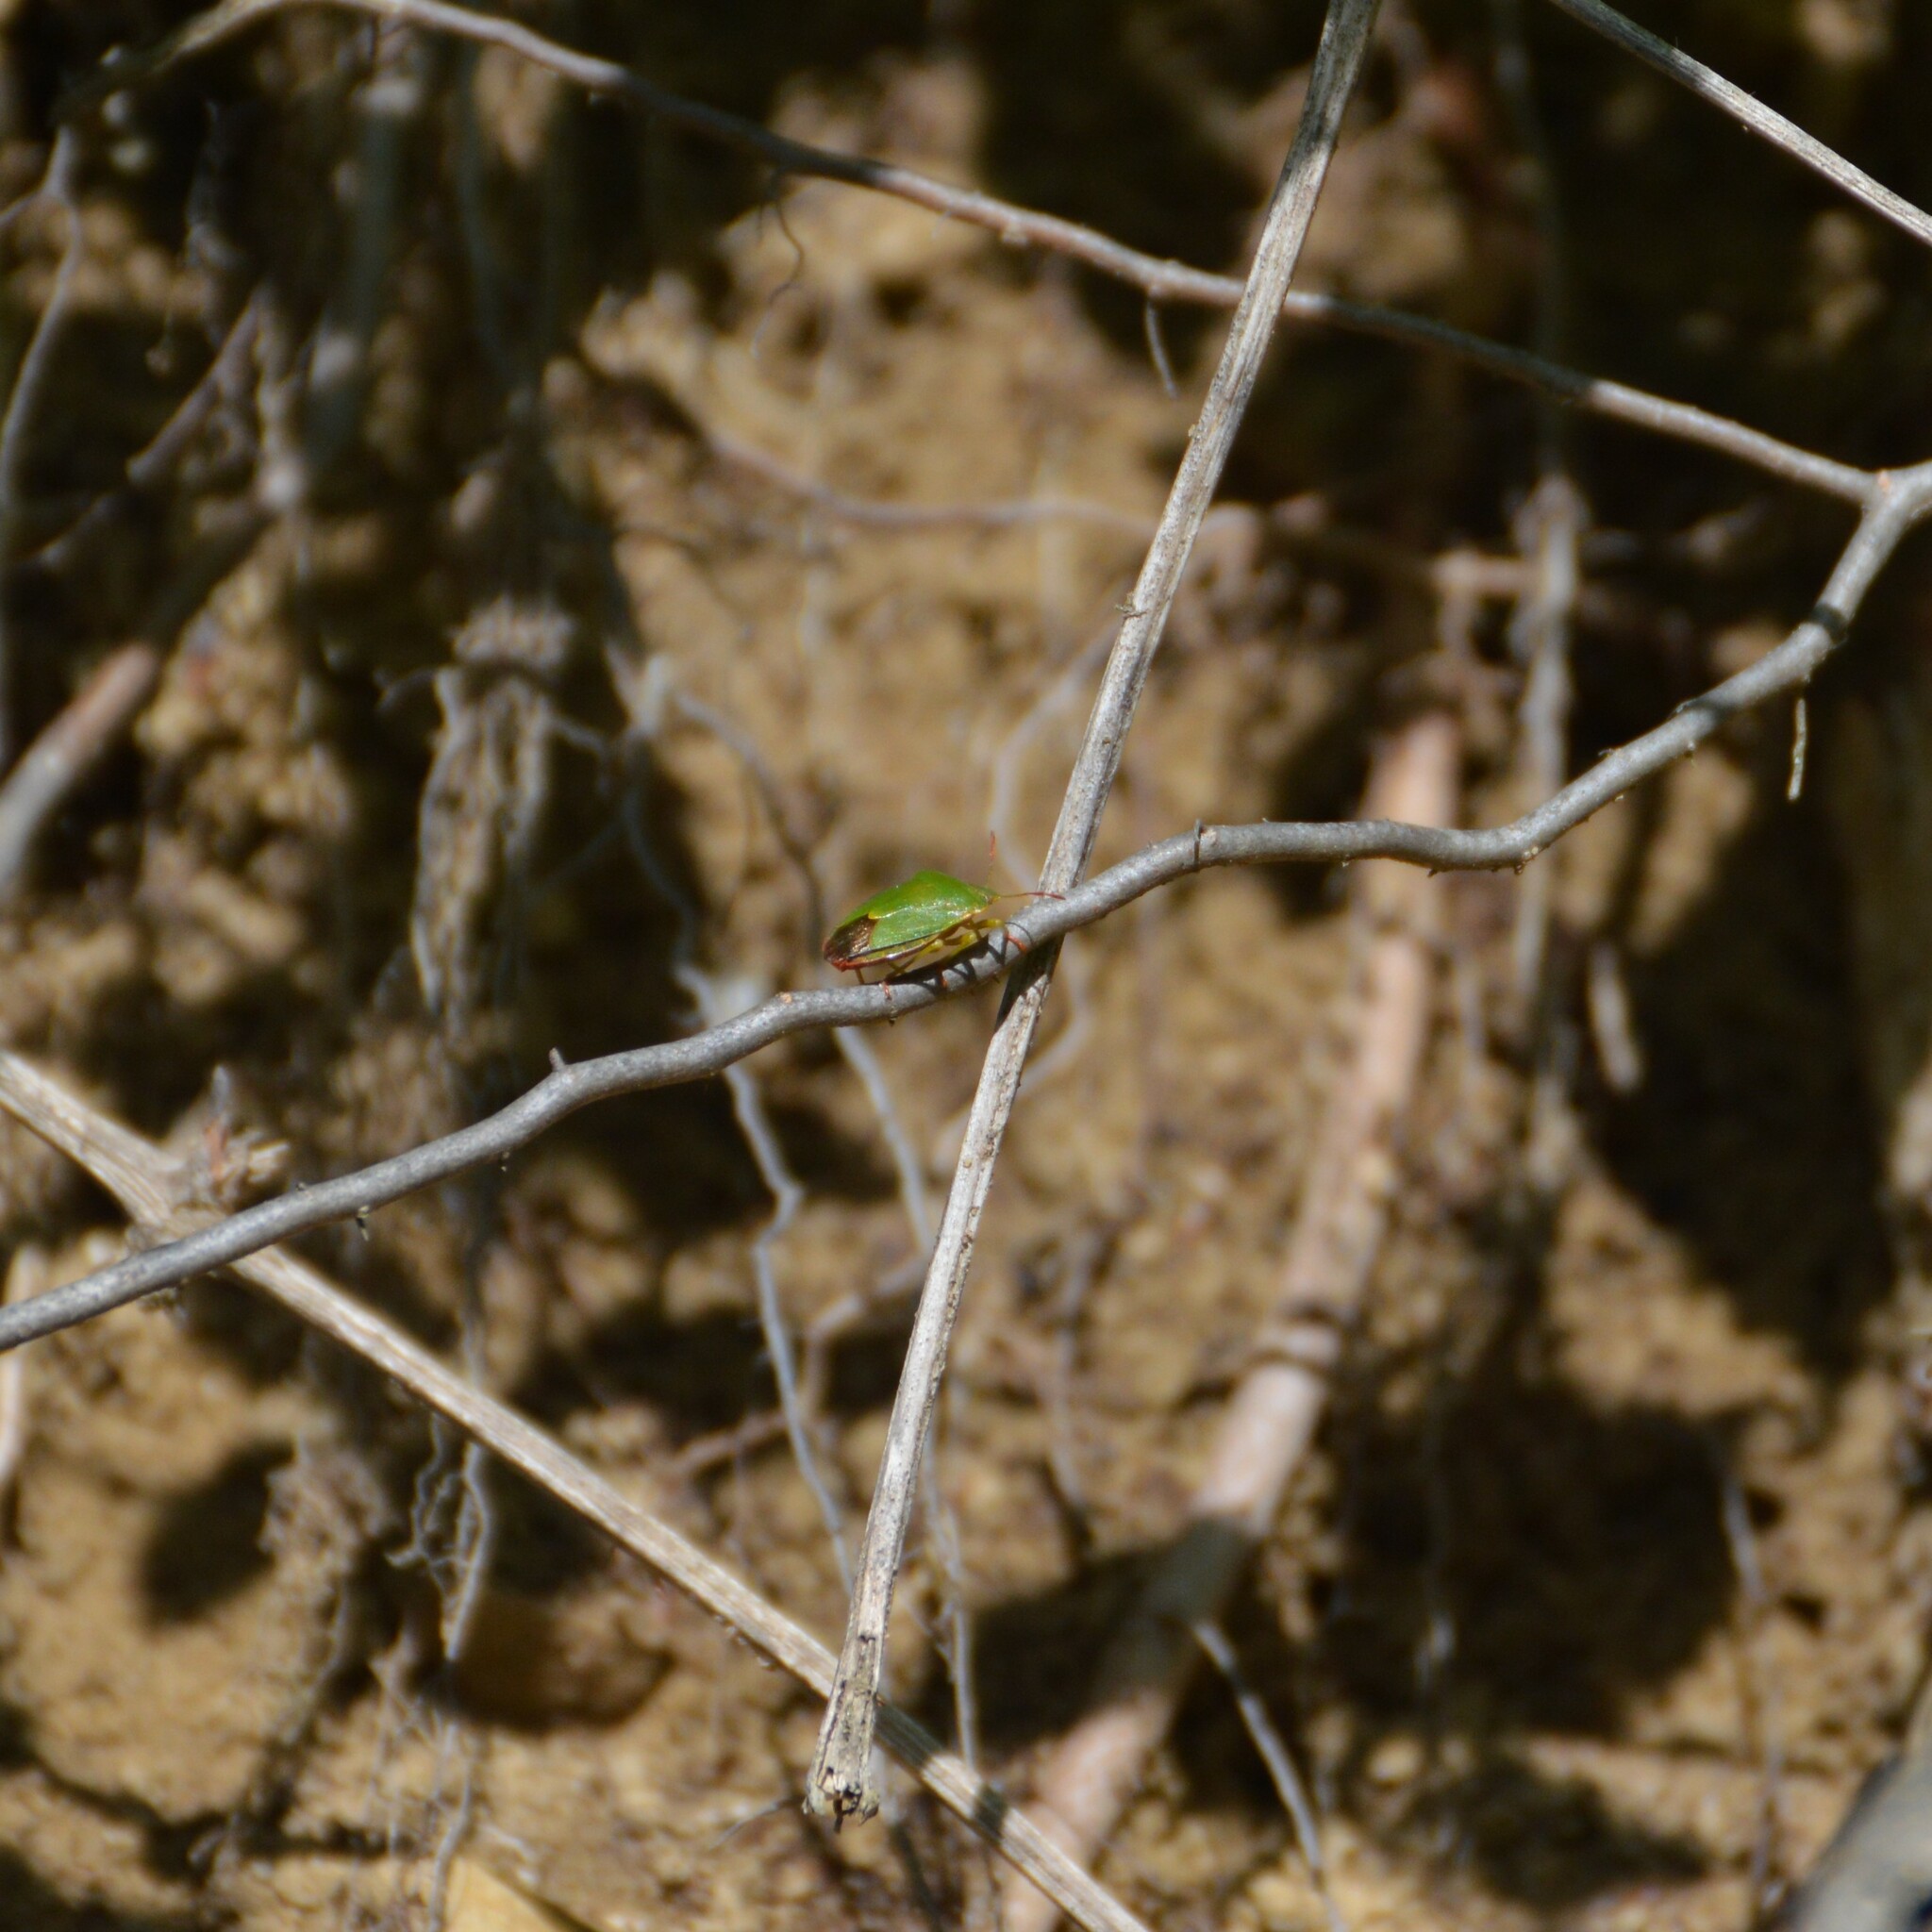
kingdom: Animalia
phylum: Arthropoda
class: Insecta
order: Hemiptera
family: Pentatomidae
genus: Palomena
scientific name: Palomena prasina
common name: Green shieldbug
